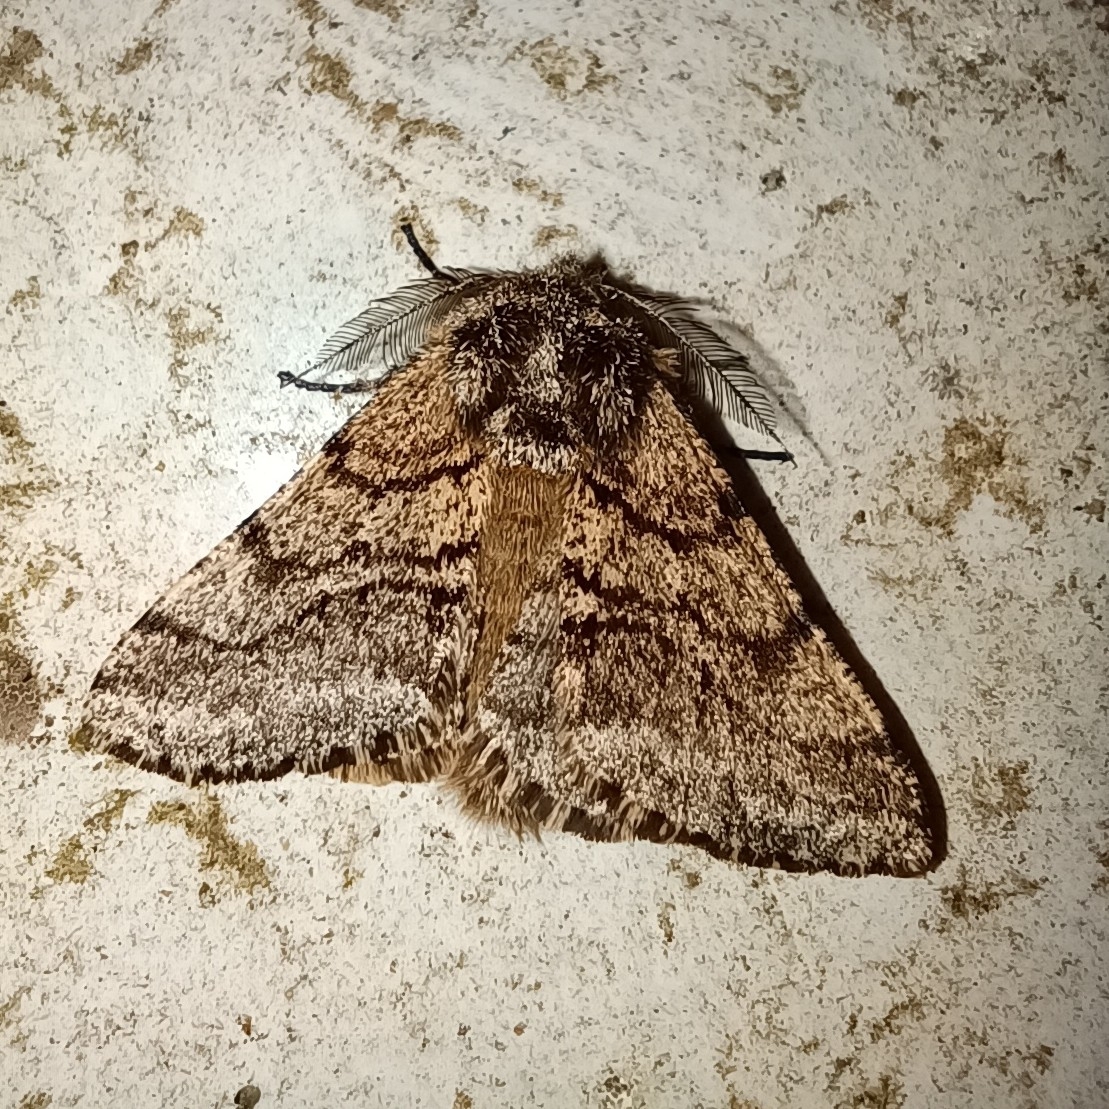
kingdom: Animalia
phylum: Arthropoda
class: Insecta
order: Lepidoptera
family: Geometridae
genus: Lycia
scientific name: Lycia hirtaria
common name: Brindled beauty
